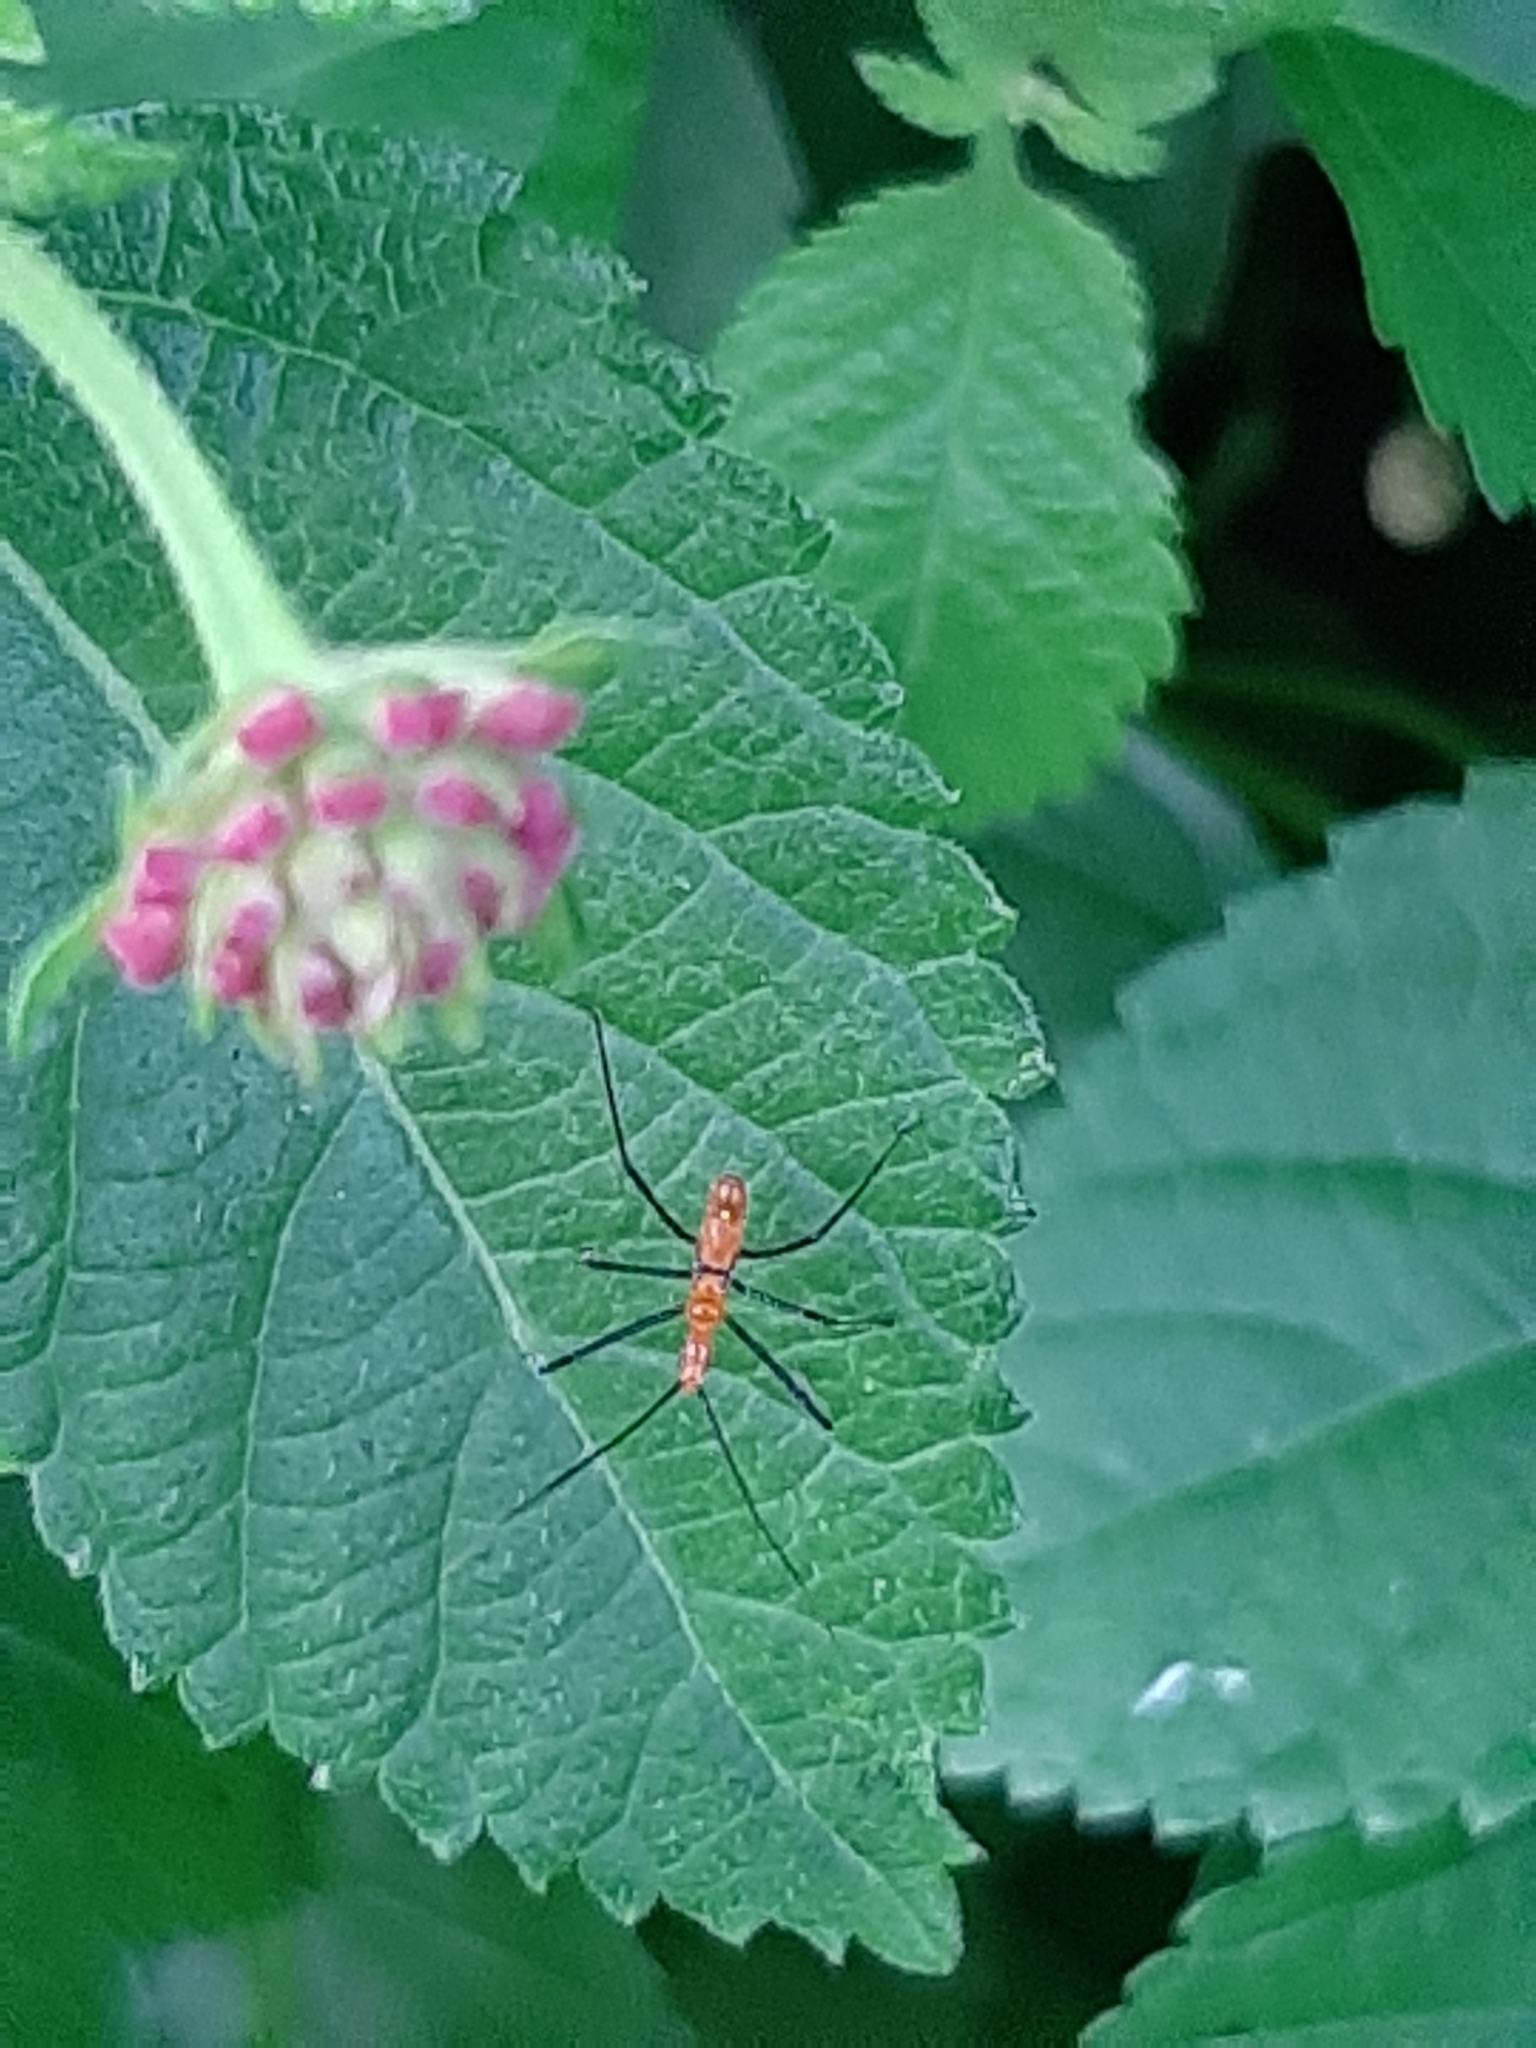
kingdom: Animalia
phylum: Arthropoda
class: Insecta
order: Hemiptera
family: Reduviidae
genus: Zelus
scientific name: Zelus longipes
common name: Milkweed assassin bug
